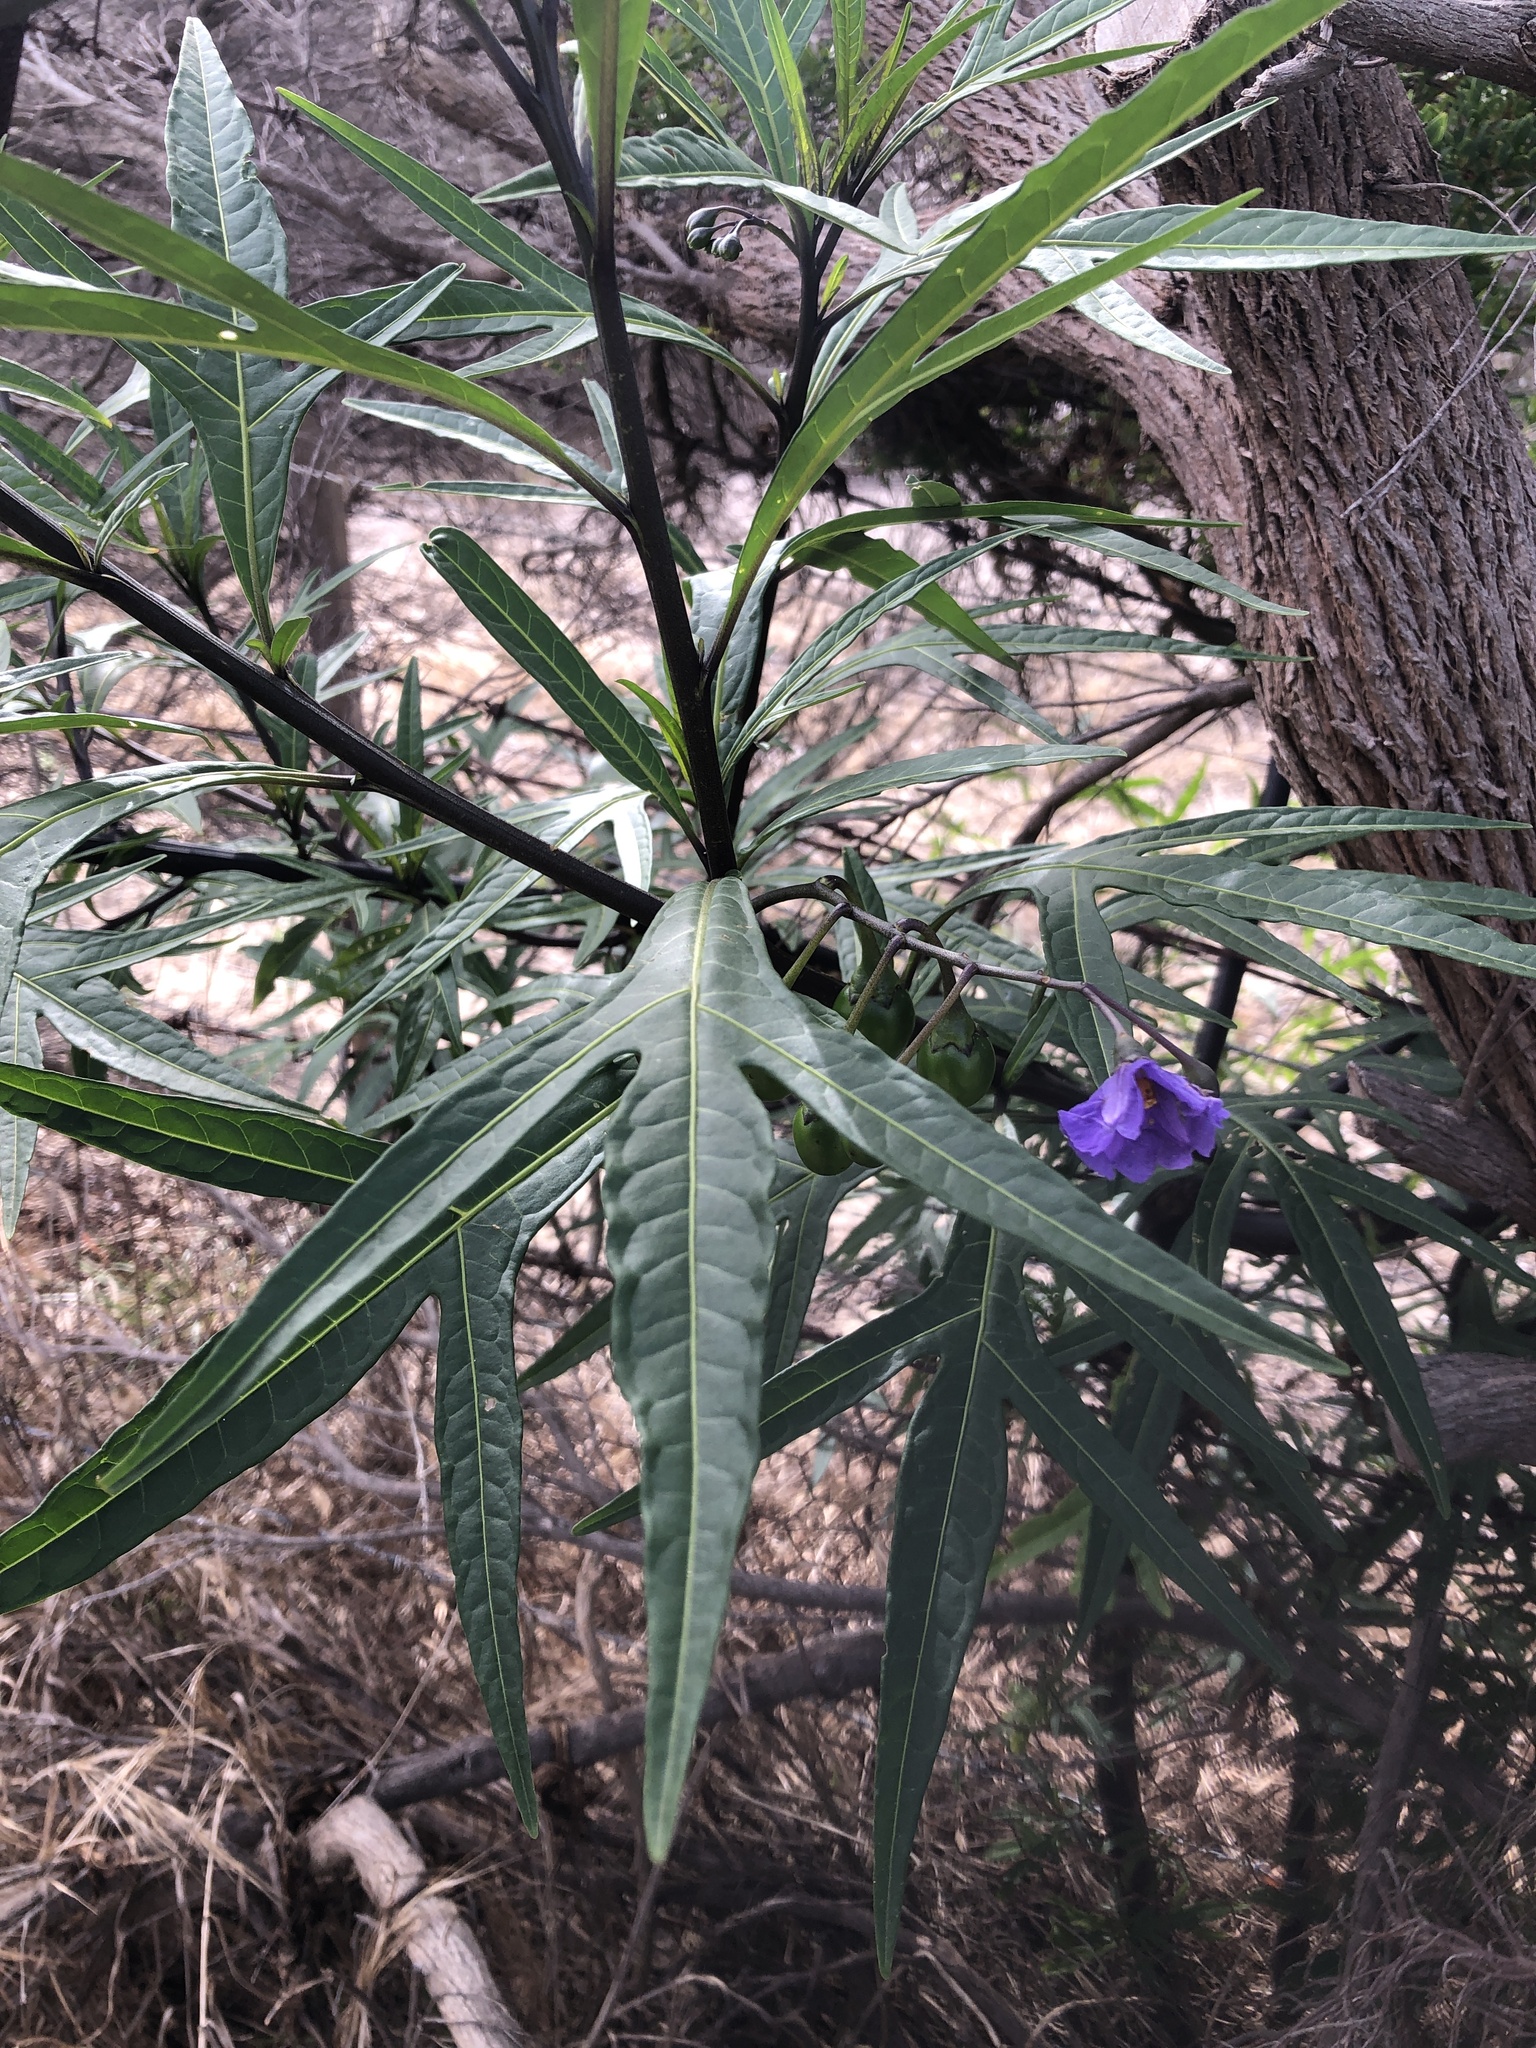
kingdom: Plantae
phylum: Tracheophyta
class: Magnoliopsida
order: Solanales
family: Solanaceae
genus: Solanum
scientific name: Solanum laciniatum
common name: Kangaroo-apple
